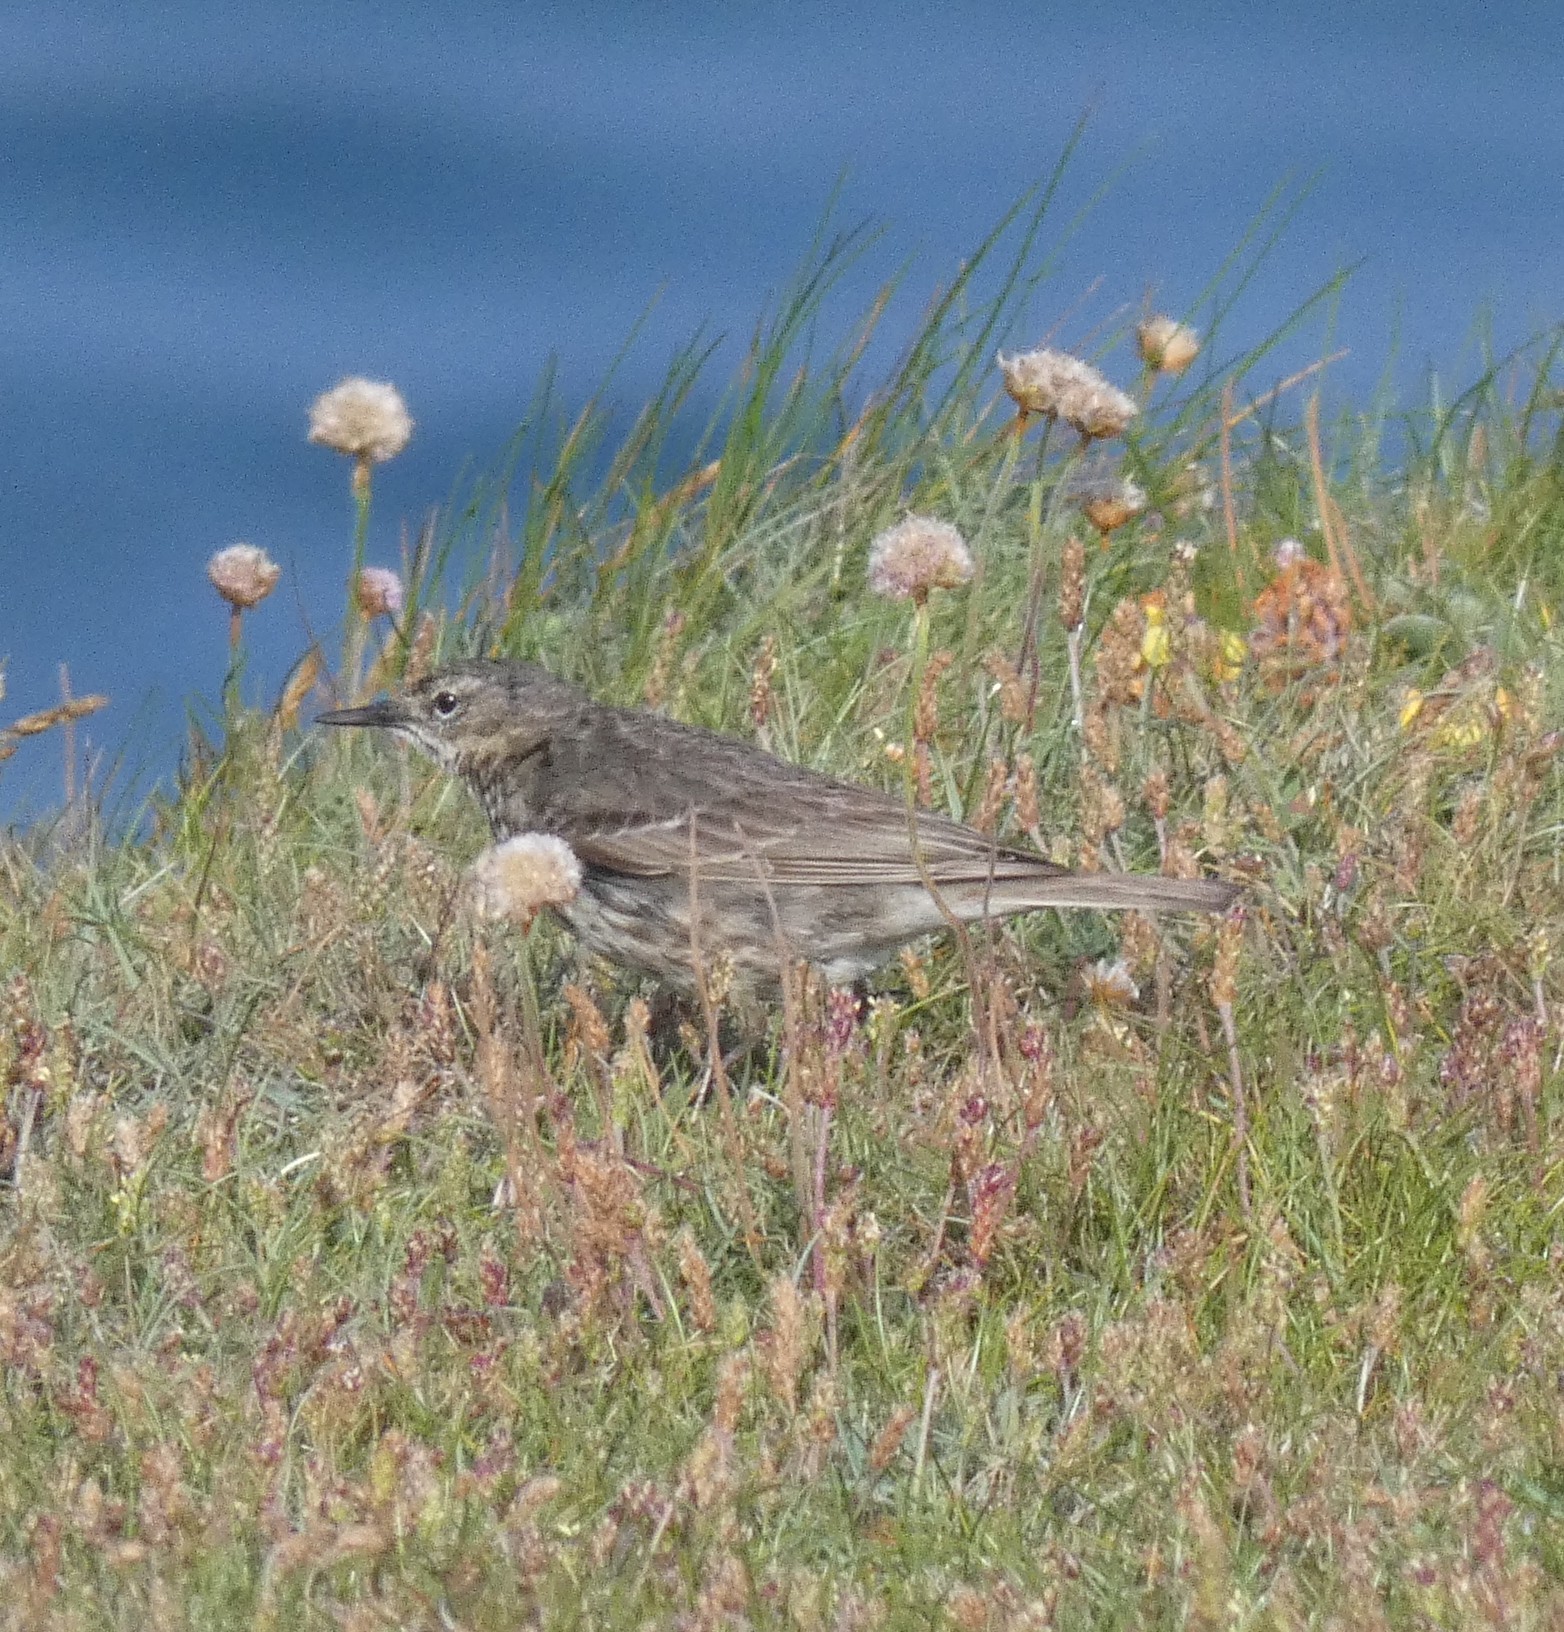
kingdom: Animalia
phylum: Chordata
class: Aves
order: Passeriformes
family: Motacillidae
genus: Anthus
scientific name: Anthus petrosus
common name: Eurasian rock pipit
